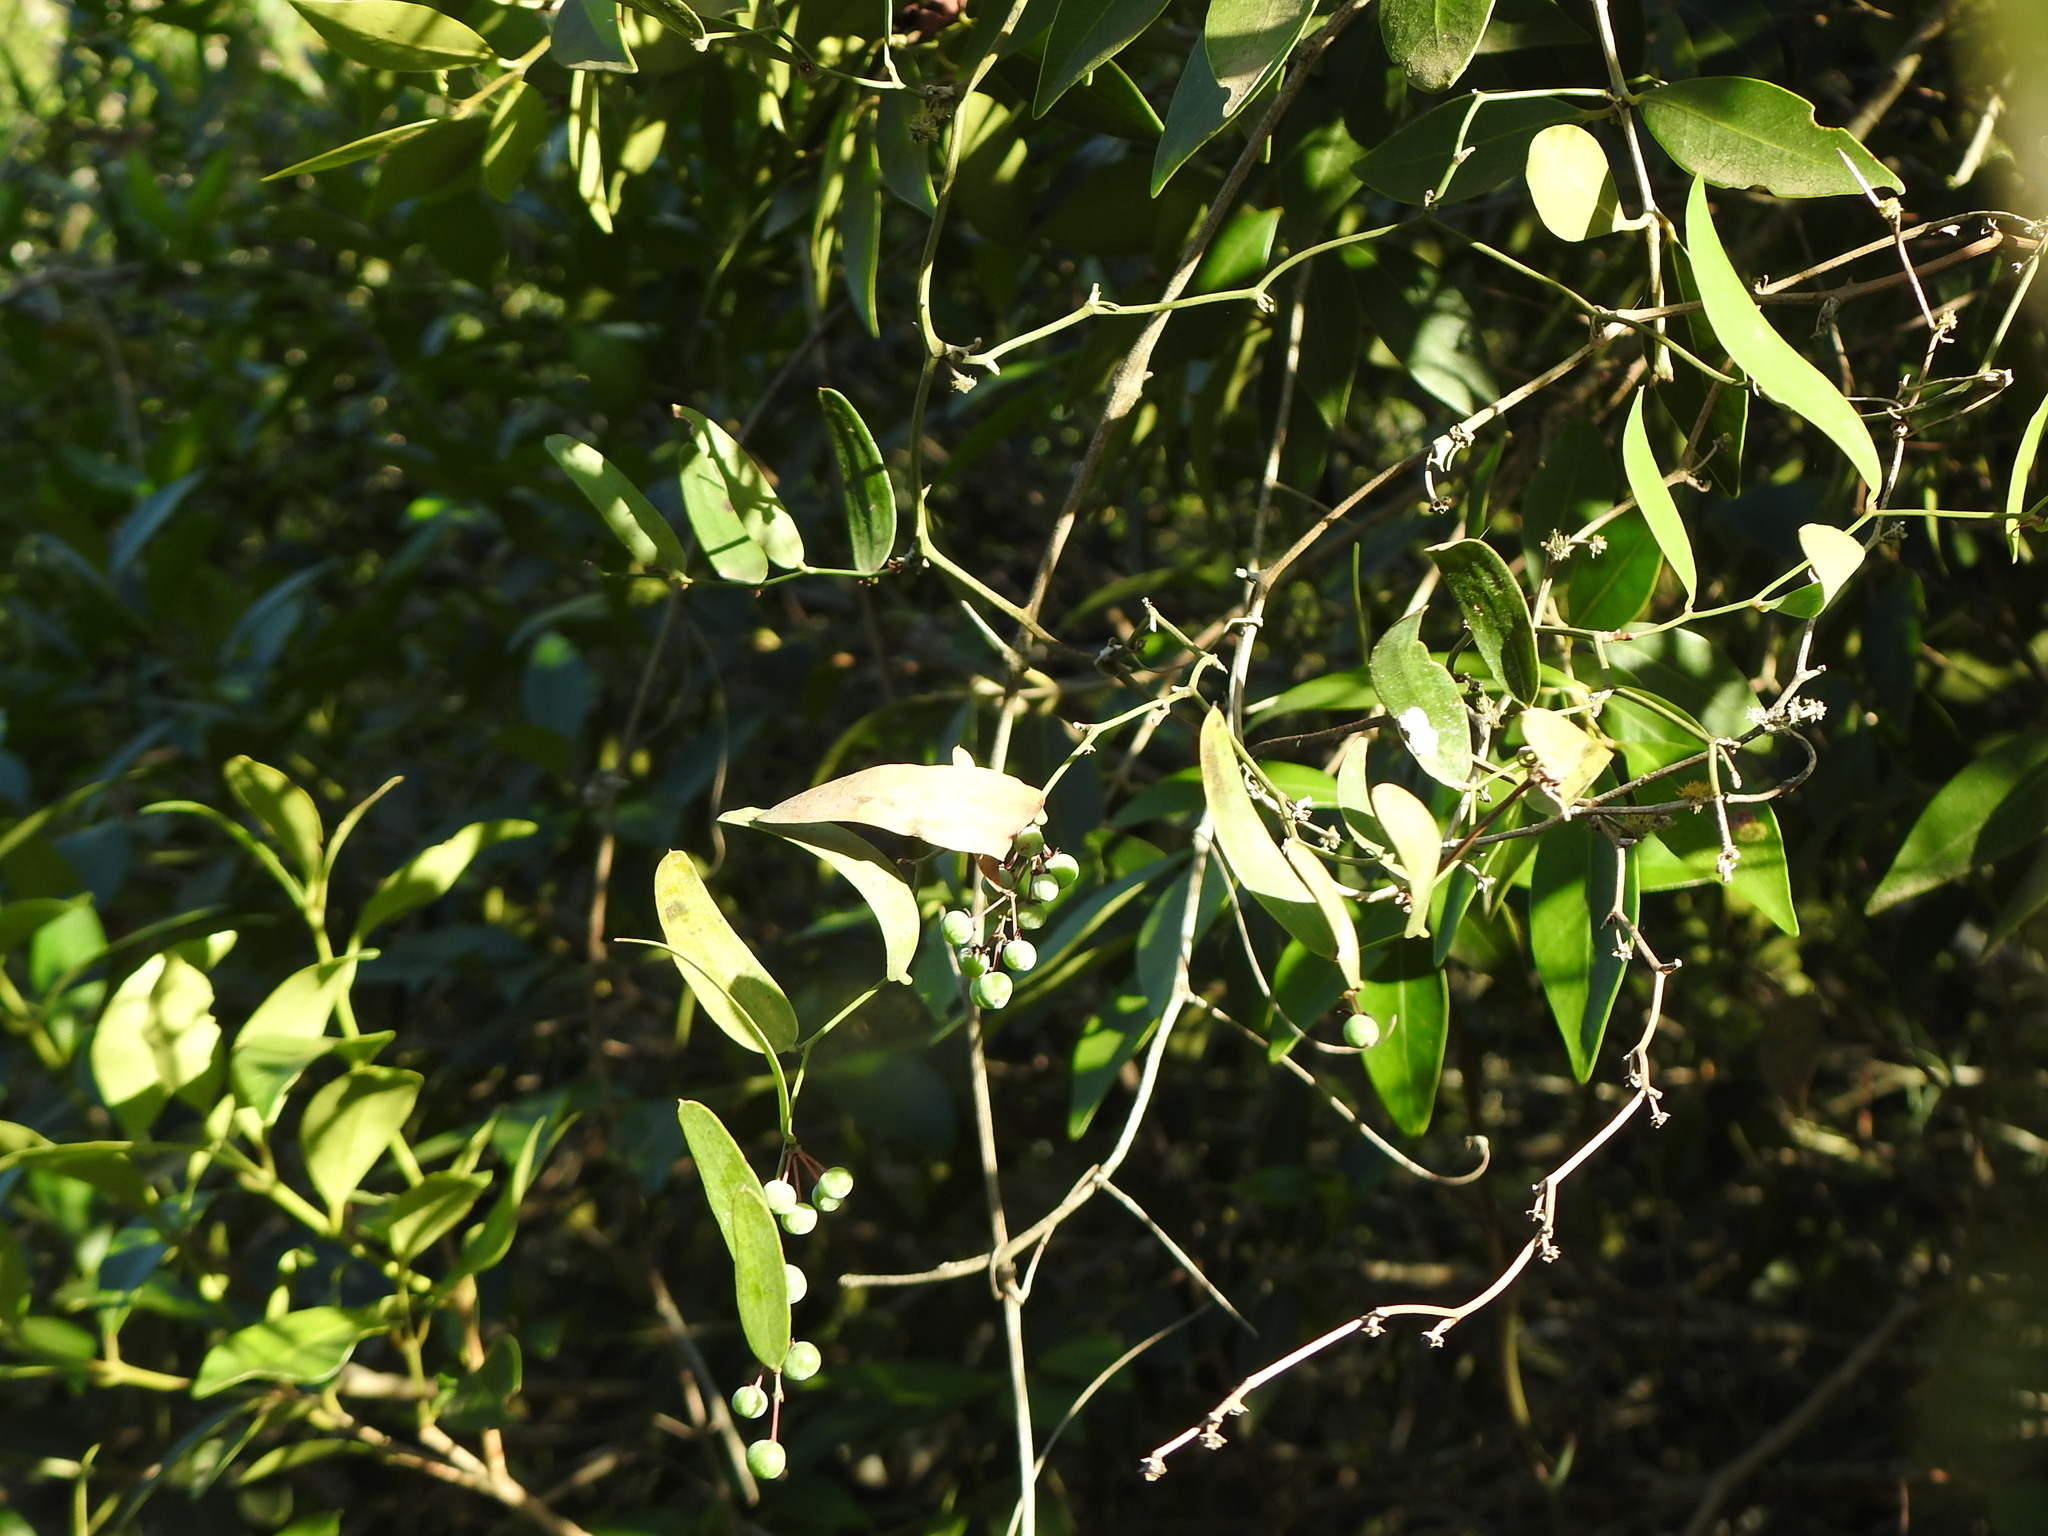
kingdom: Plantae
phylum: Tracheophyta
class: Liliopsida
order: Liliales
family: Smilacaceae
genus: Smilax
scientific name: Smilax campestris
